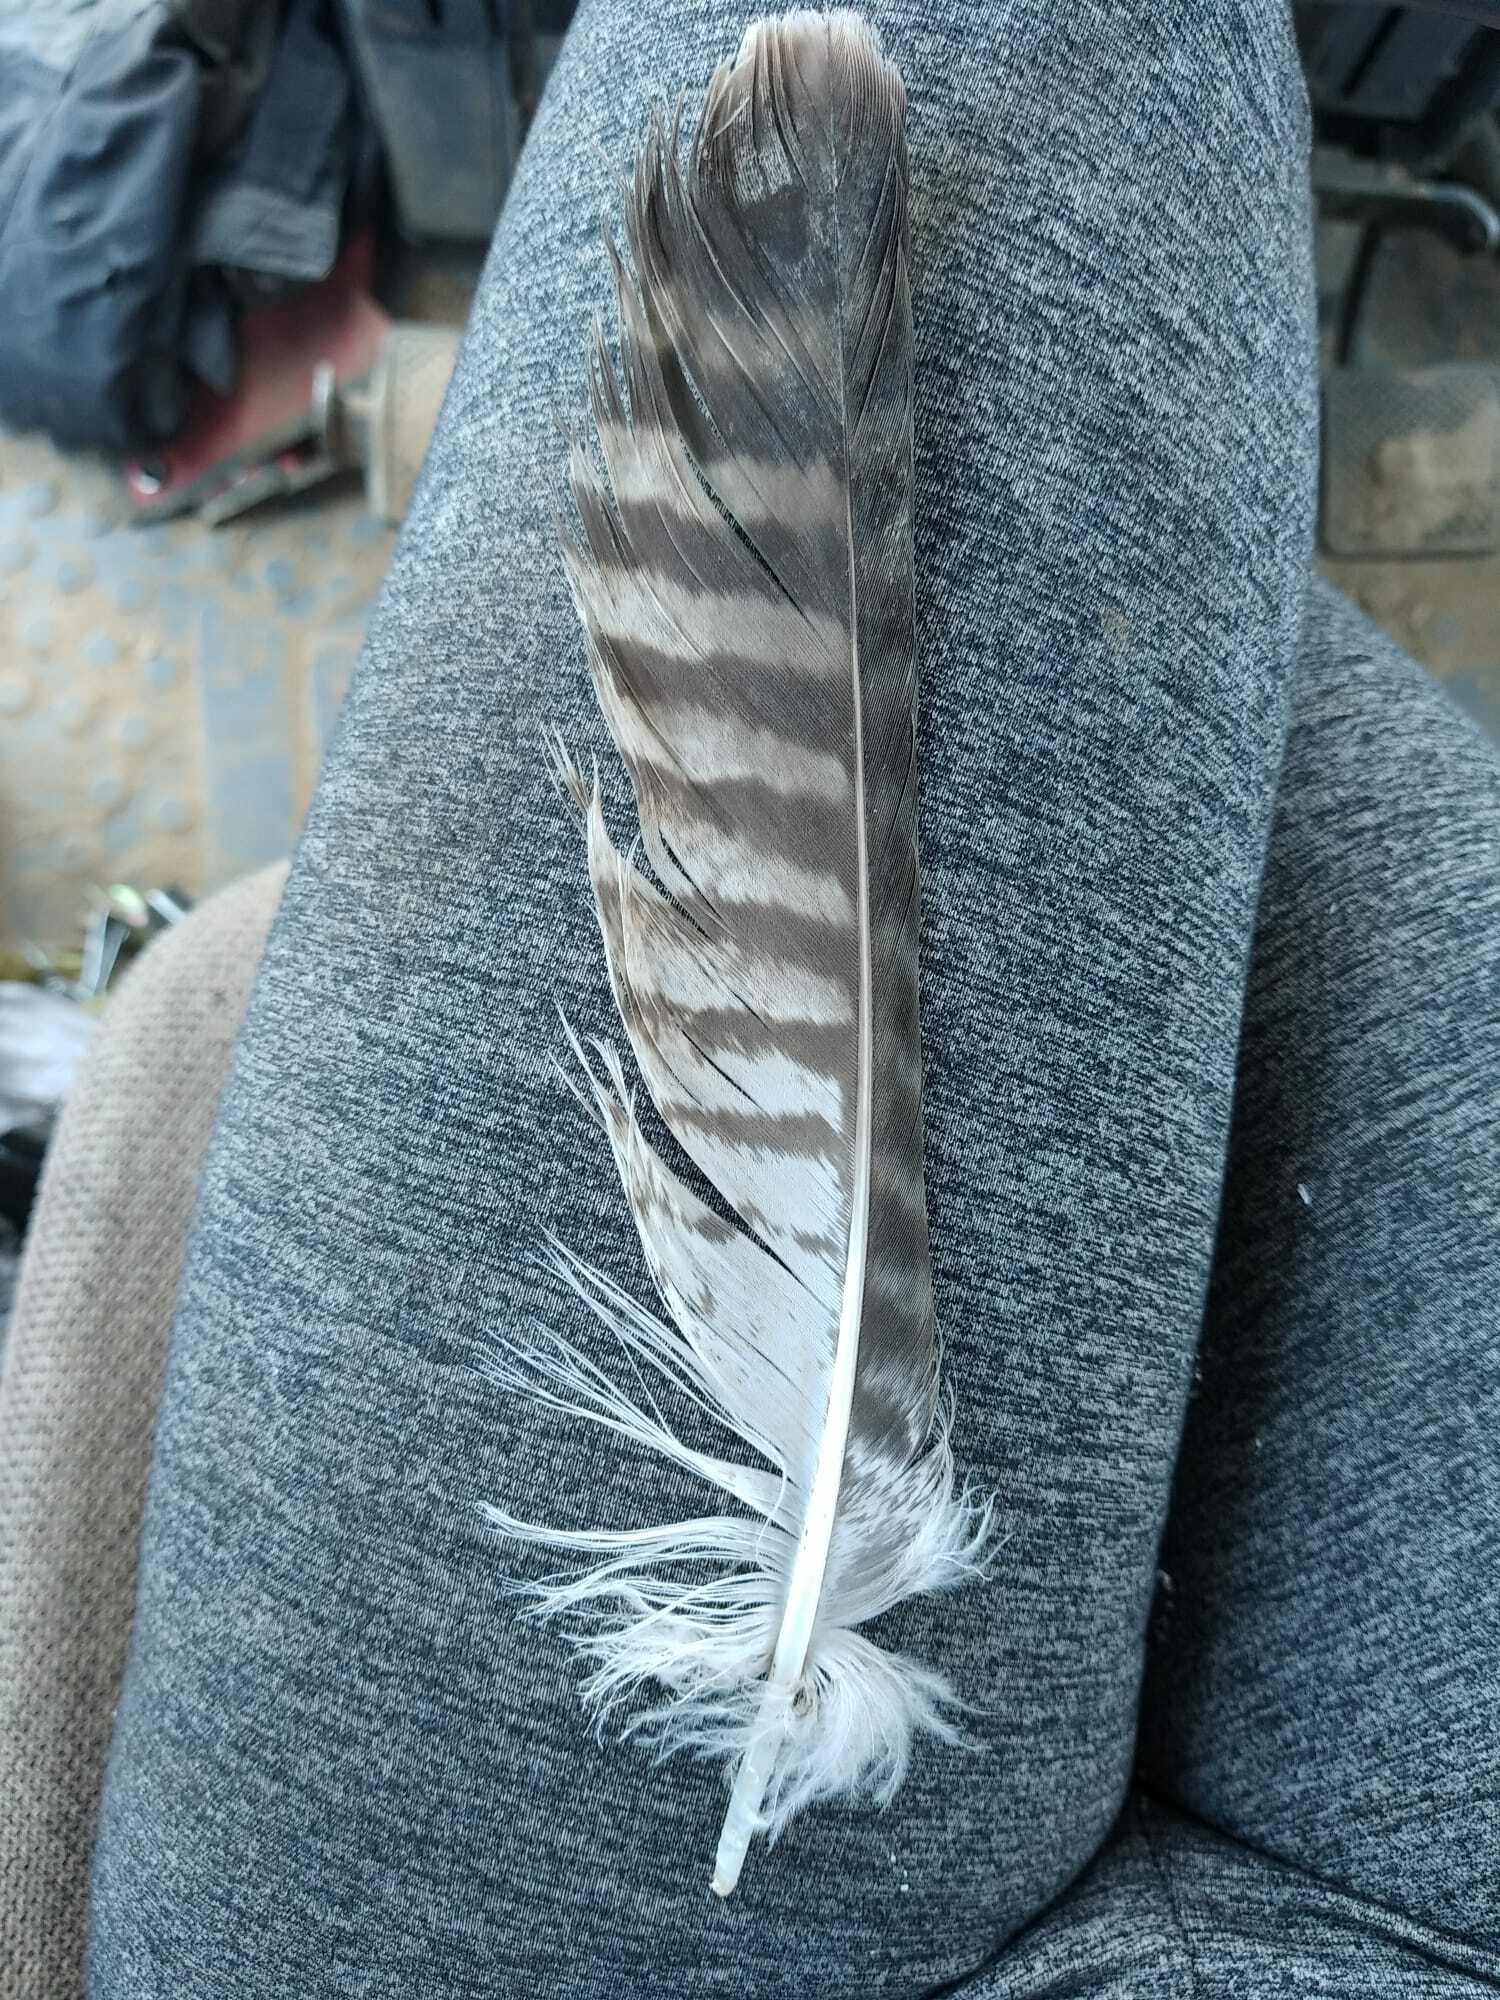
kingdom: Animalia
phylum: Chordata
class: Aves
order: Accipitriformes
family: Accipitridae
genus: Buteo
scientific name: Buteo buteo
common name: Common buzzard
